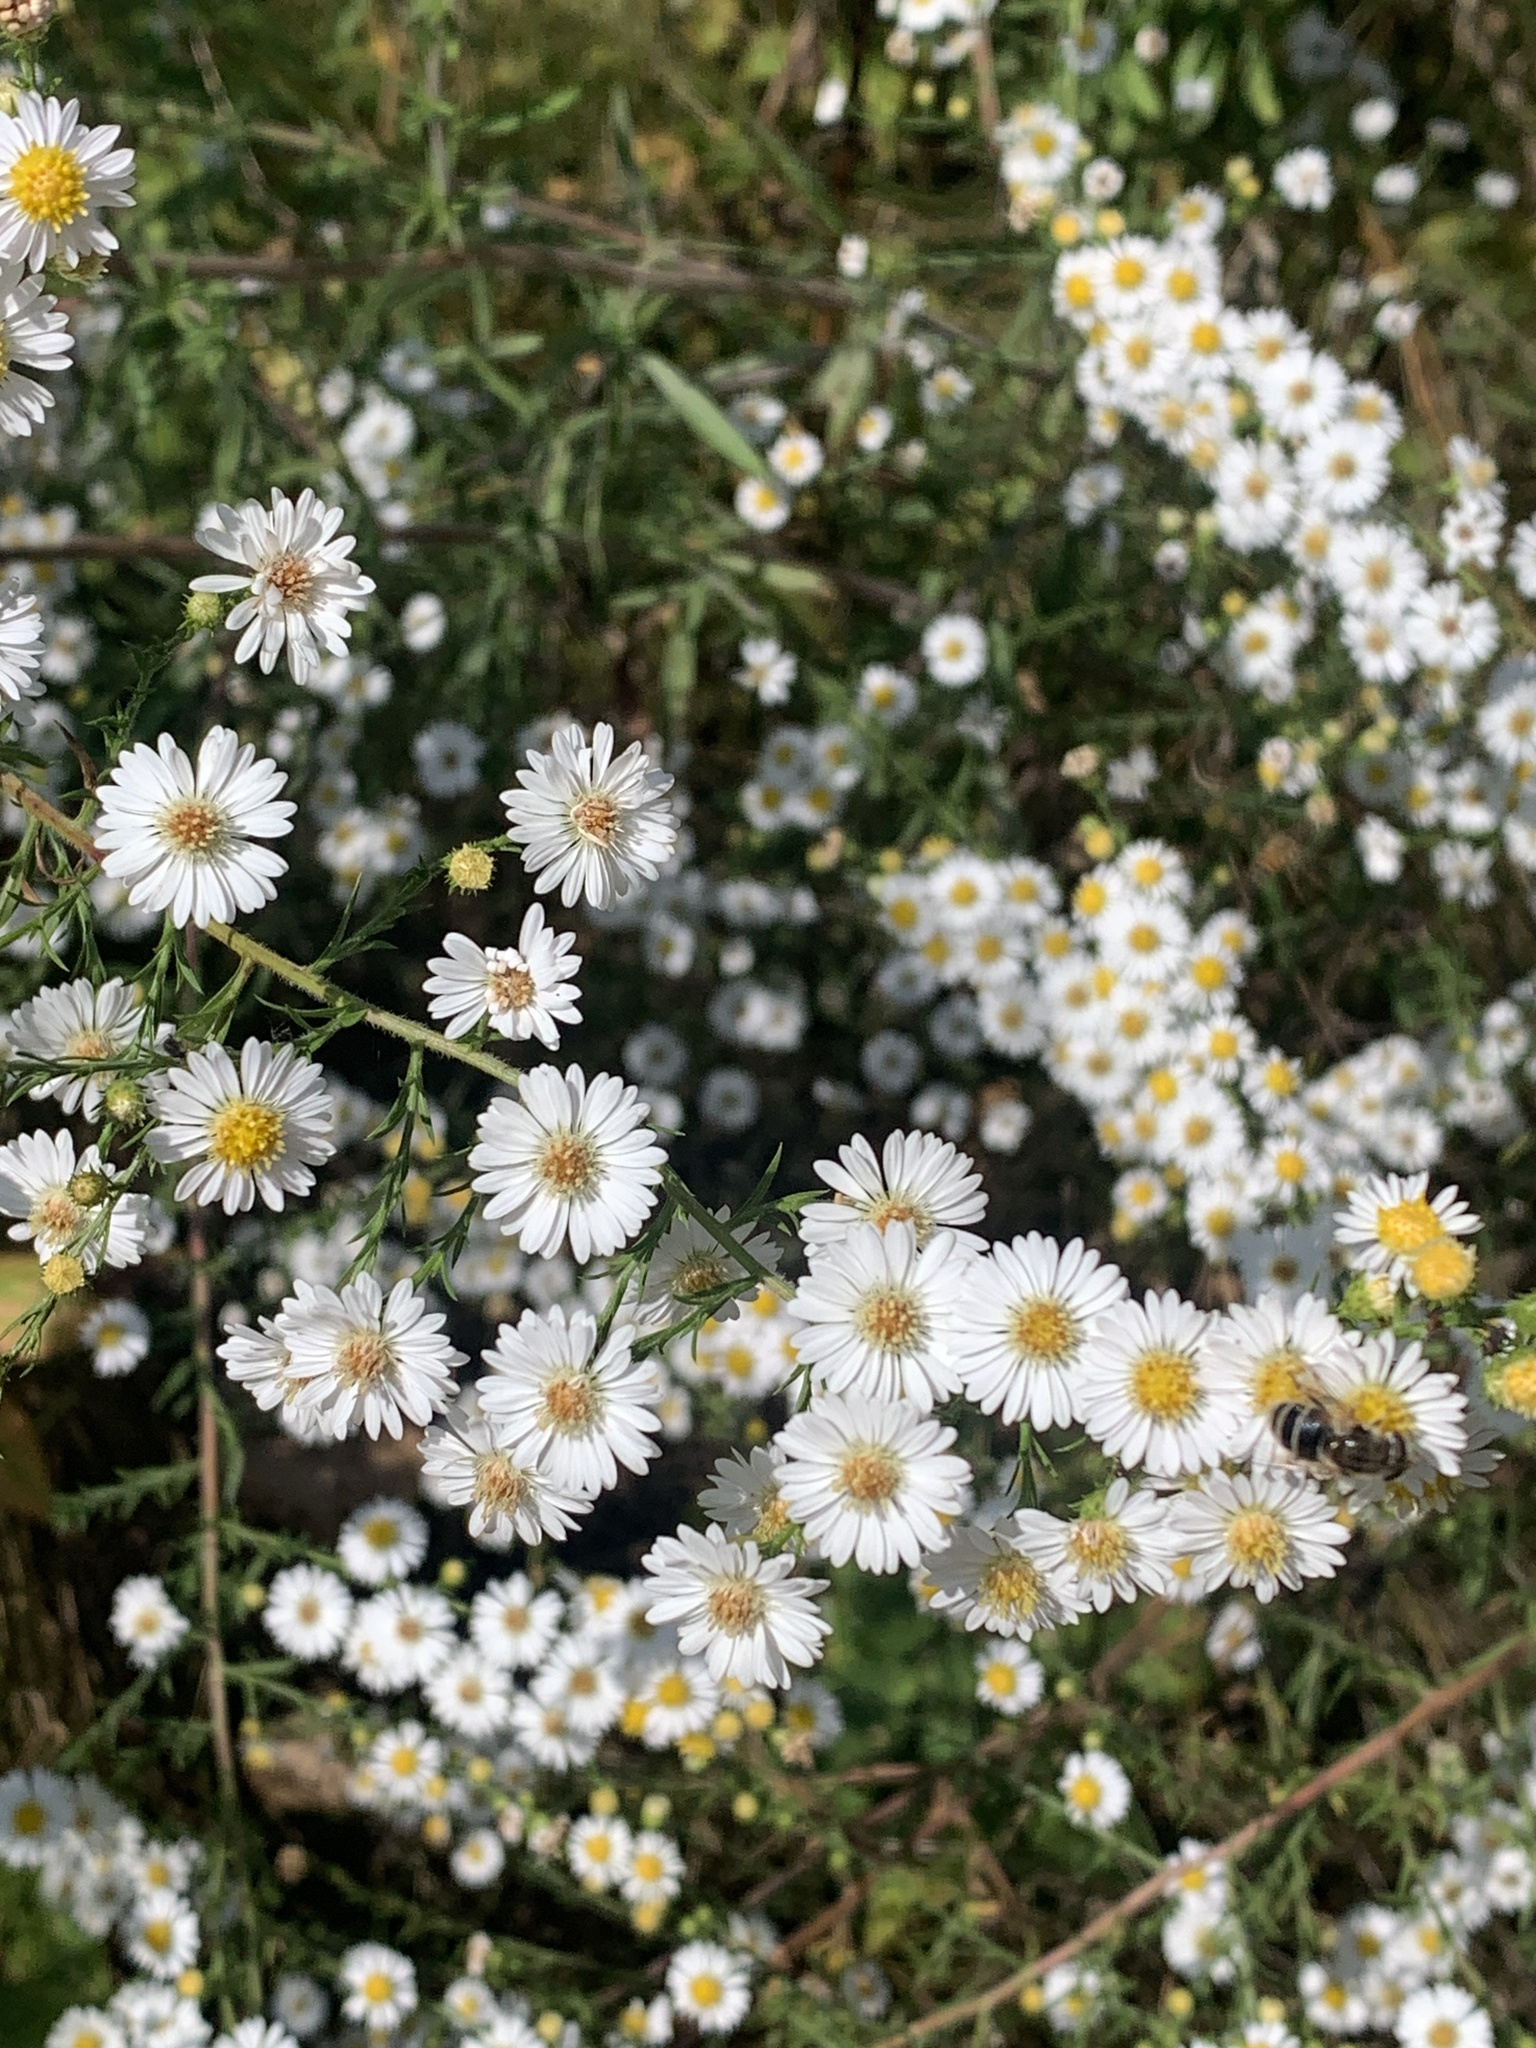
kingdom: Plantae
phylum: Tracheophyta
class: Magnoliopsida
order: Asterales
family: Asteraceae
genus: Symphyotrichum
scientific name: Symphyotrichum pilosum
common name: Awl aster
